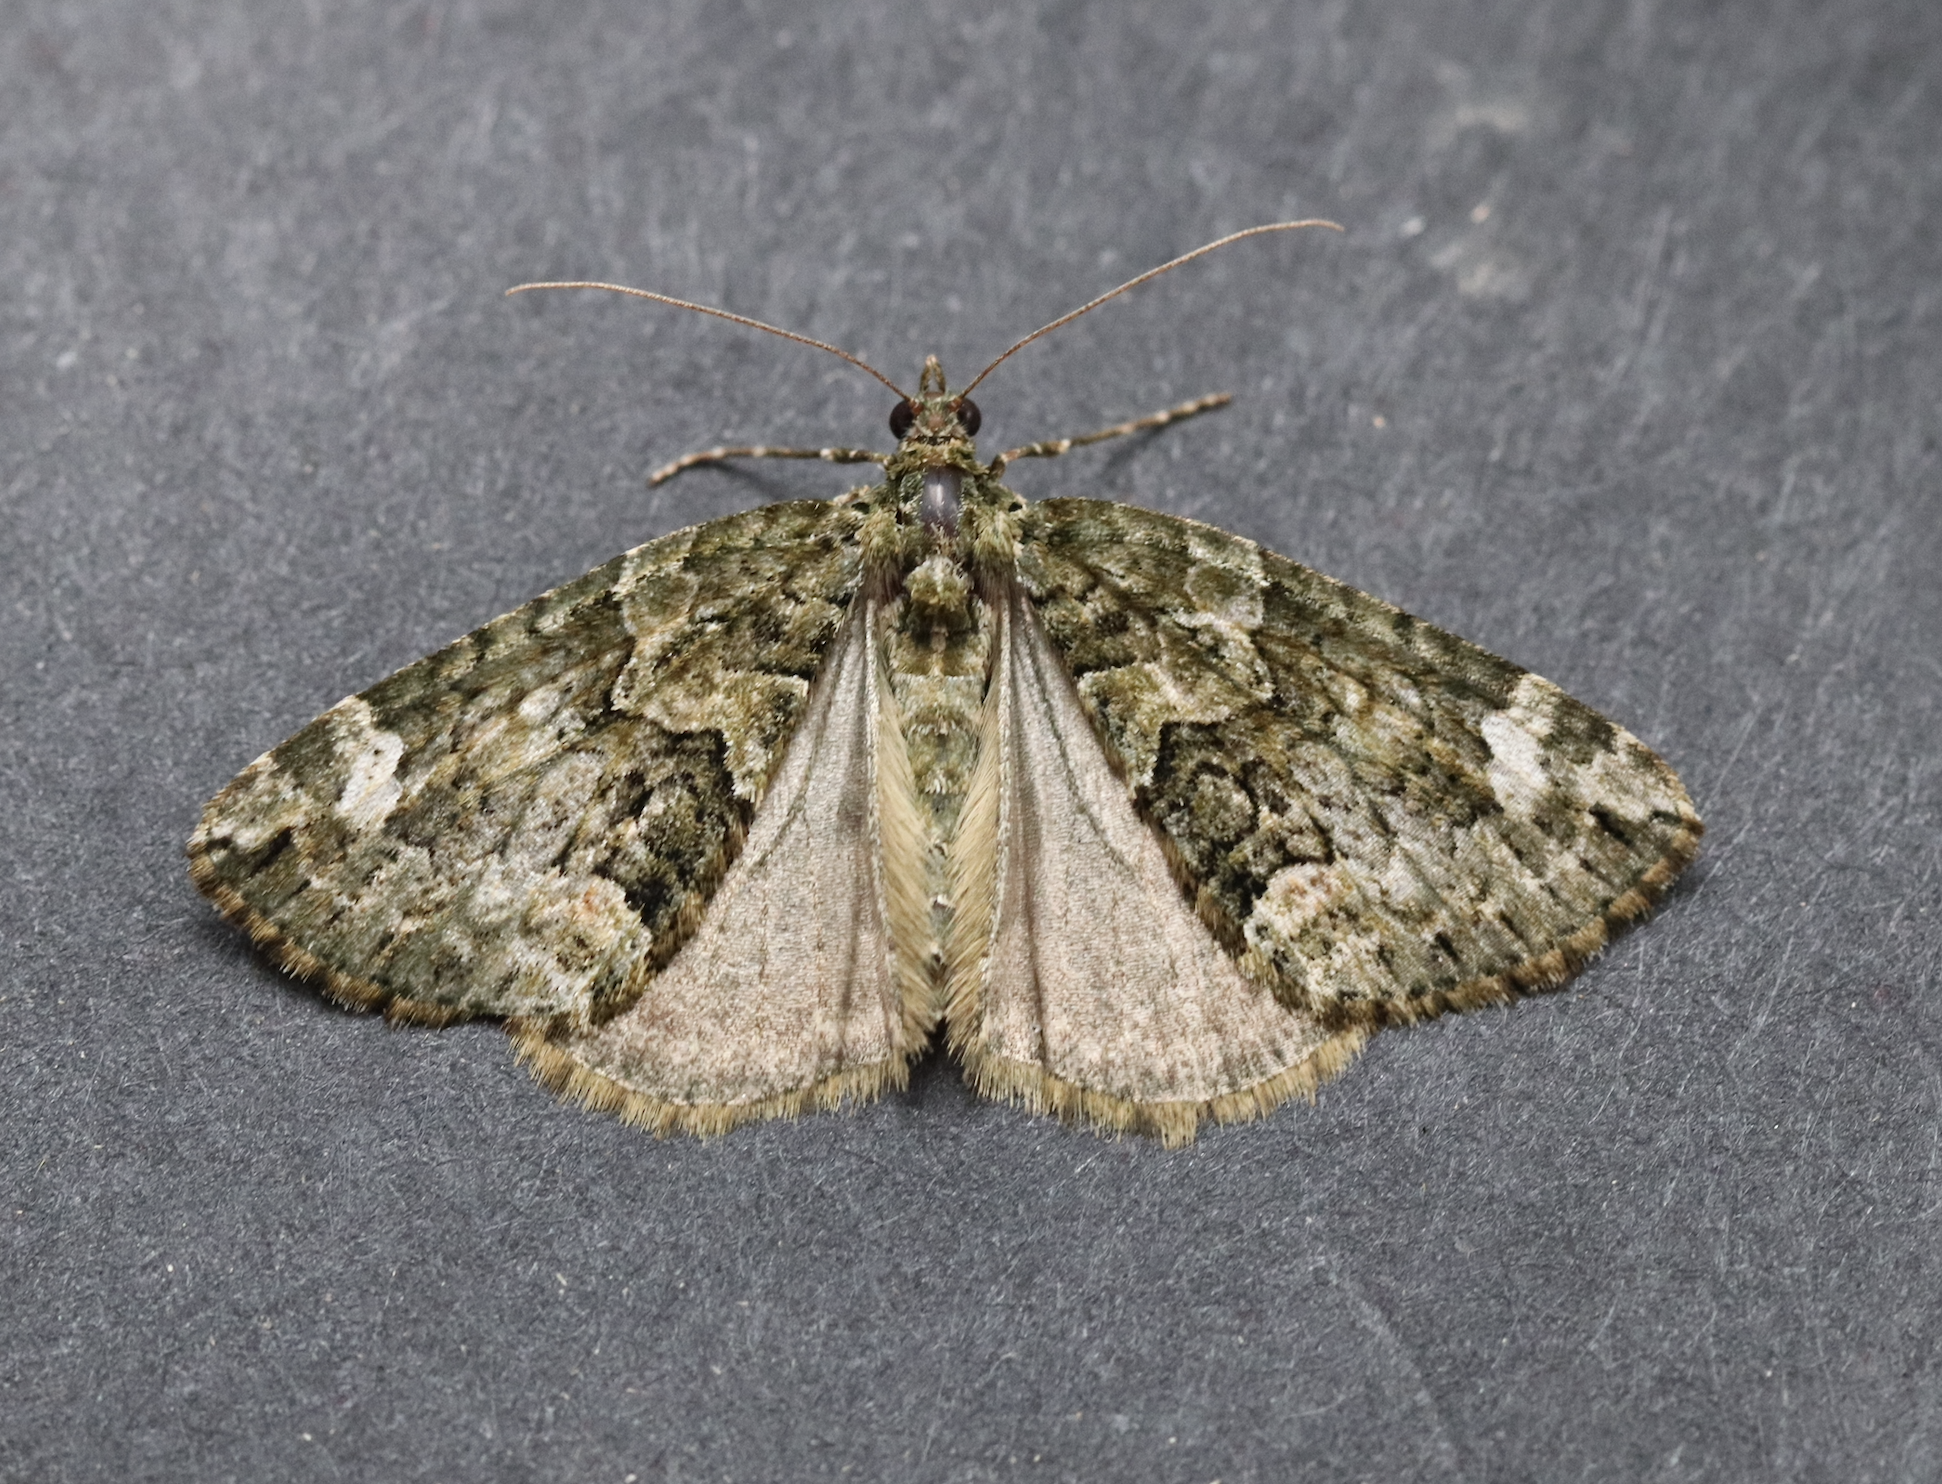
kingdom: Animalia
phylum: Arthropoda
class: Insecta
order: Lepidoptera
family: Geometridae
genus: Chloroclysta
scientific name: Chloroclysta siterata
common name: Red-green carpet
